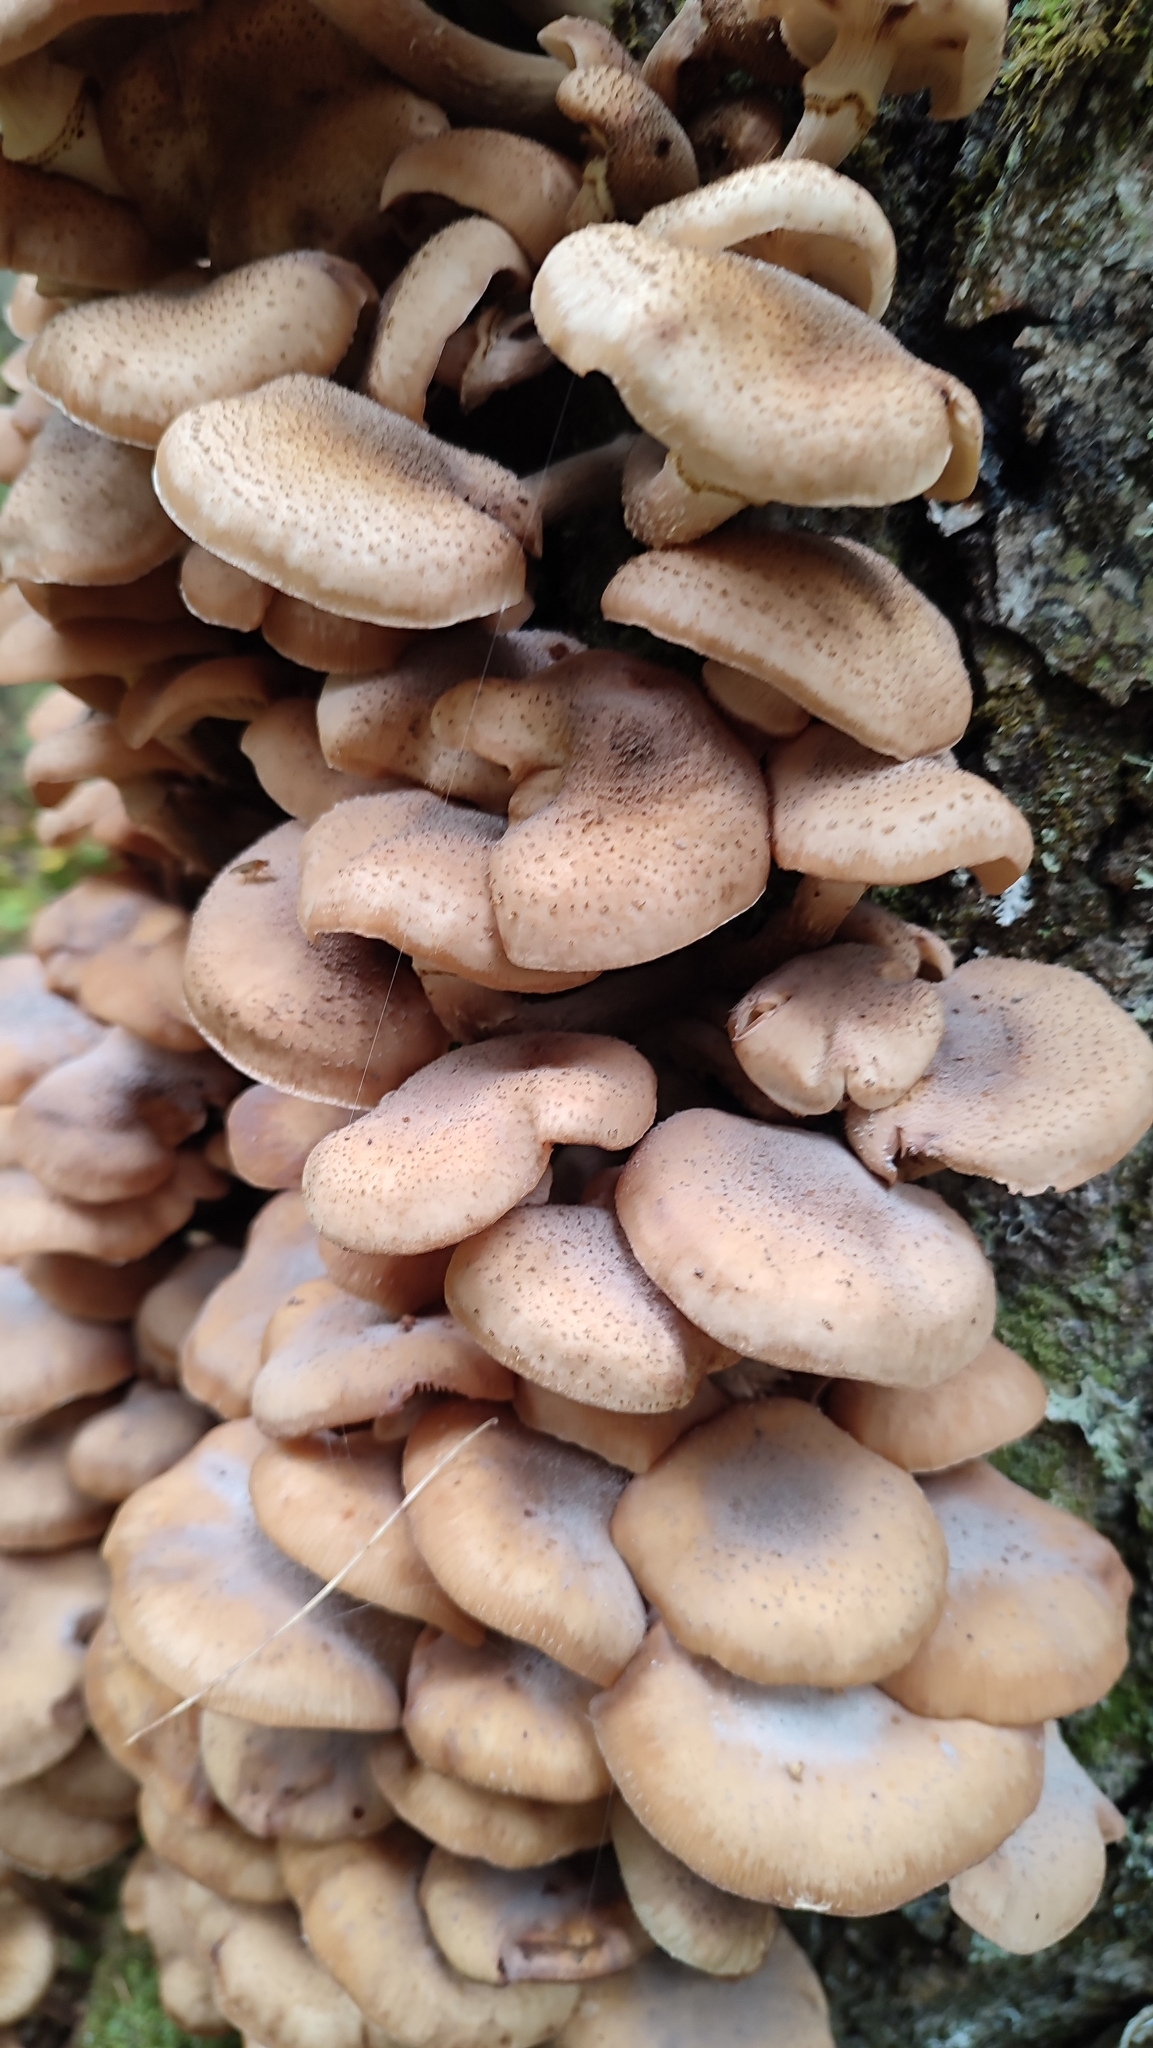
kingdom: Fungi
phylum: Basidiomycota
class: Agaricomycetes
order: Agaricales
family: Physalacriaceae
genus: Armillaria
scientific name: Armillaria mellea
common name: Honey fungus
